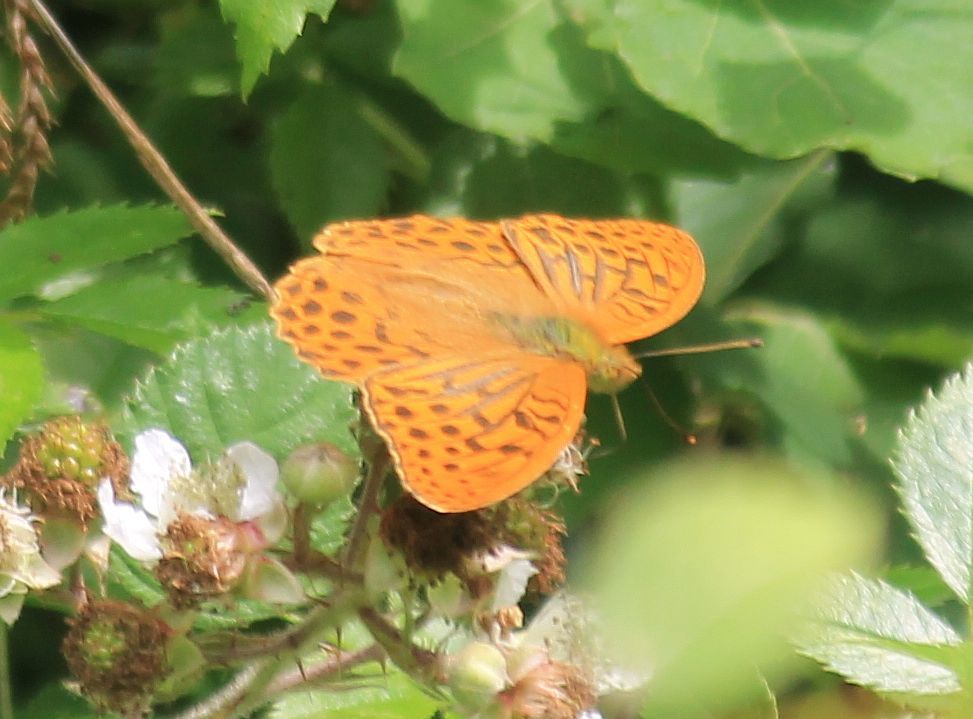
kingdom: Animalia
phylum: Arthropoda
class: Insecta
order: Lepidoptera
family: Nymphalidae
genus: Argynnis
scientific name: Argynnis paphia
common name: Silver-washed fritillary
